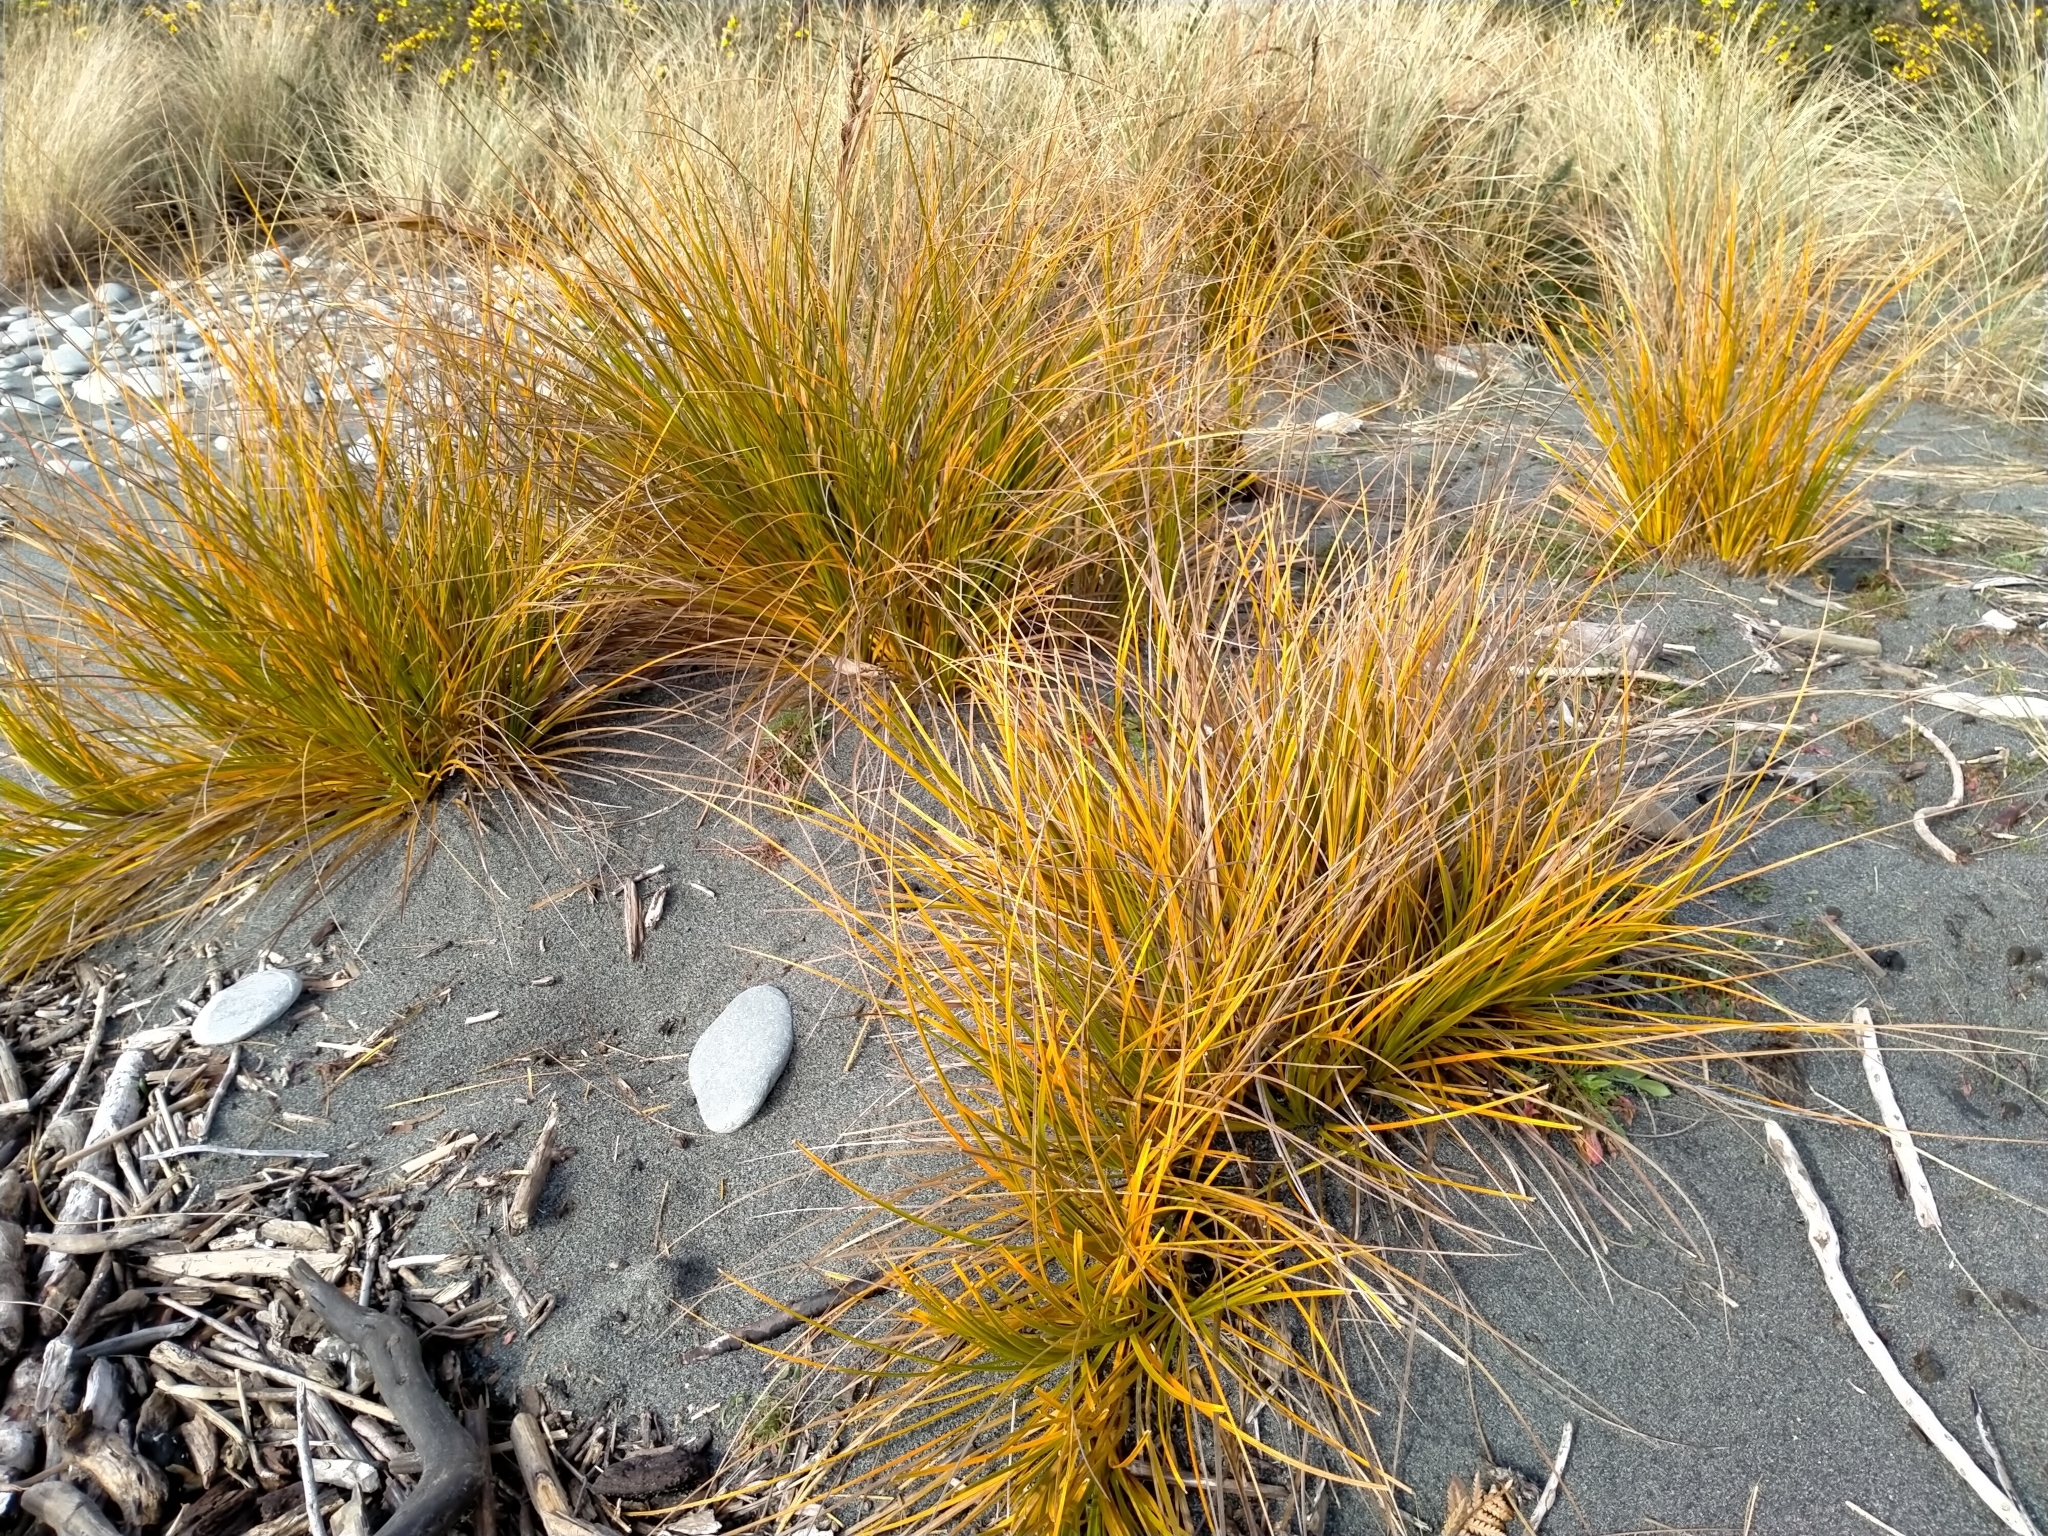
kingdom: Plantae
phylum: Tracheophyta
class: Liliopsida
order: Poales
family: Cyperaceae
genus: Ficinia
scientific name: Ficinia spiralis
